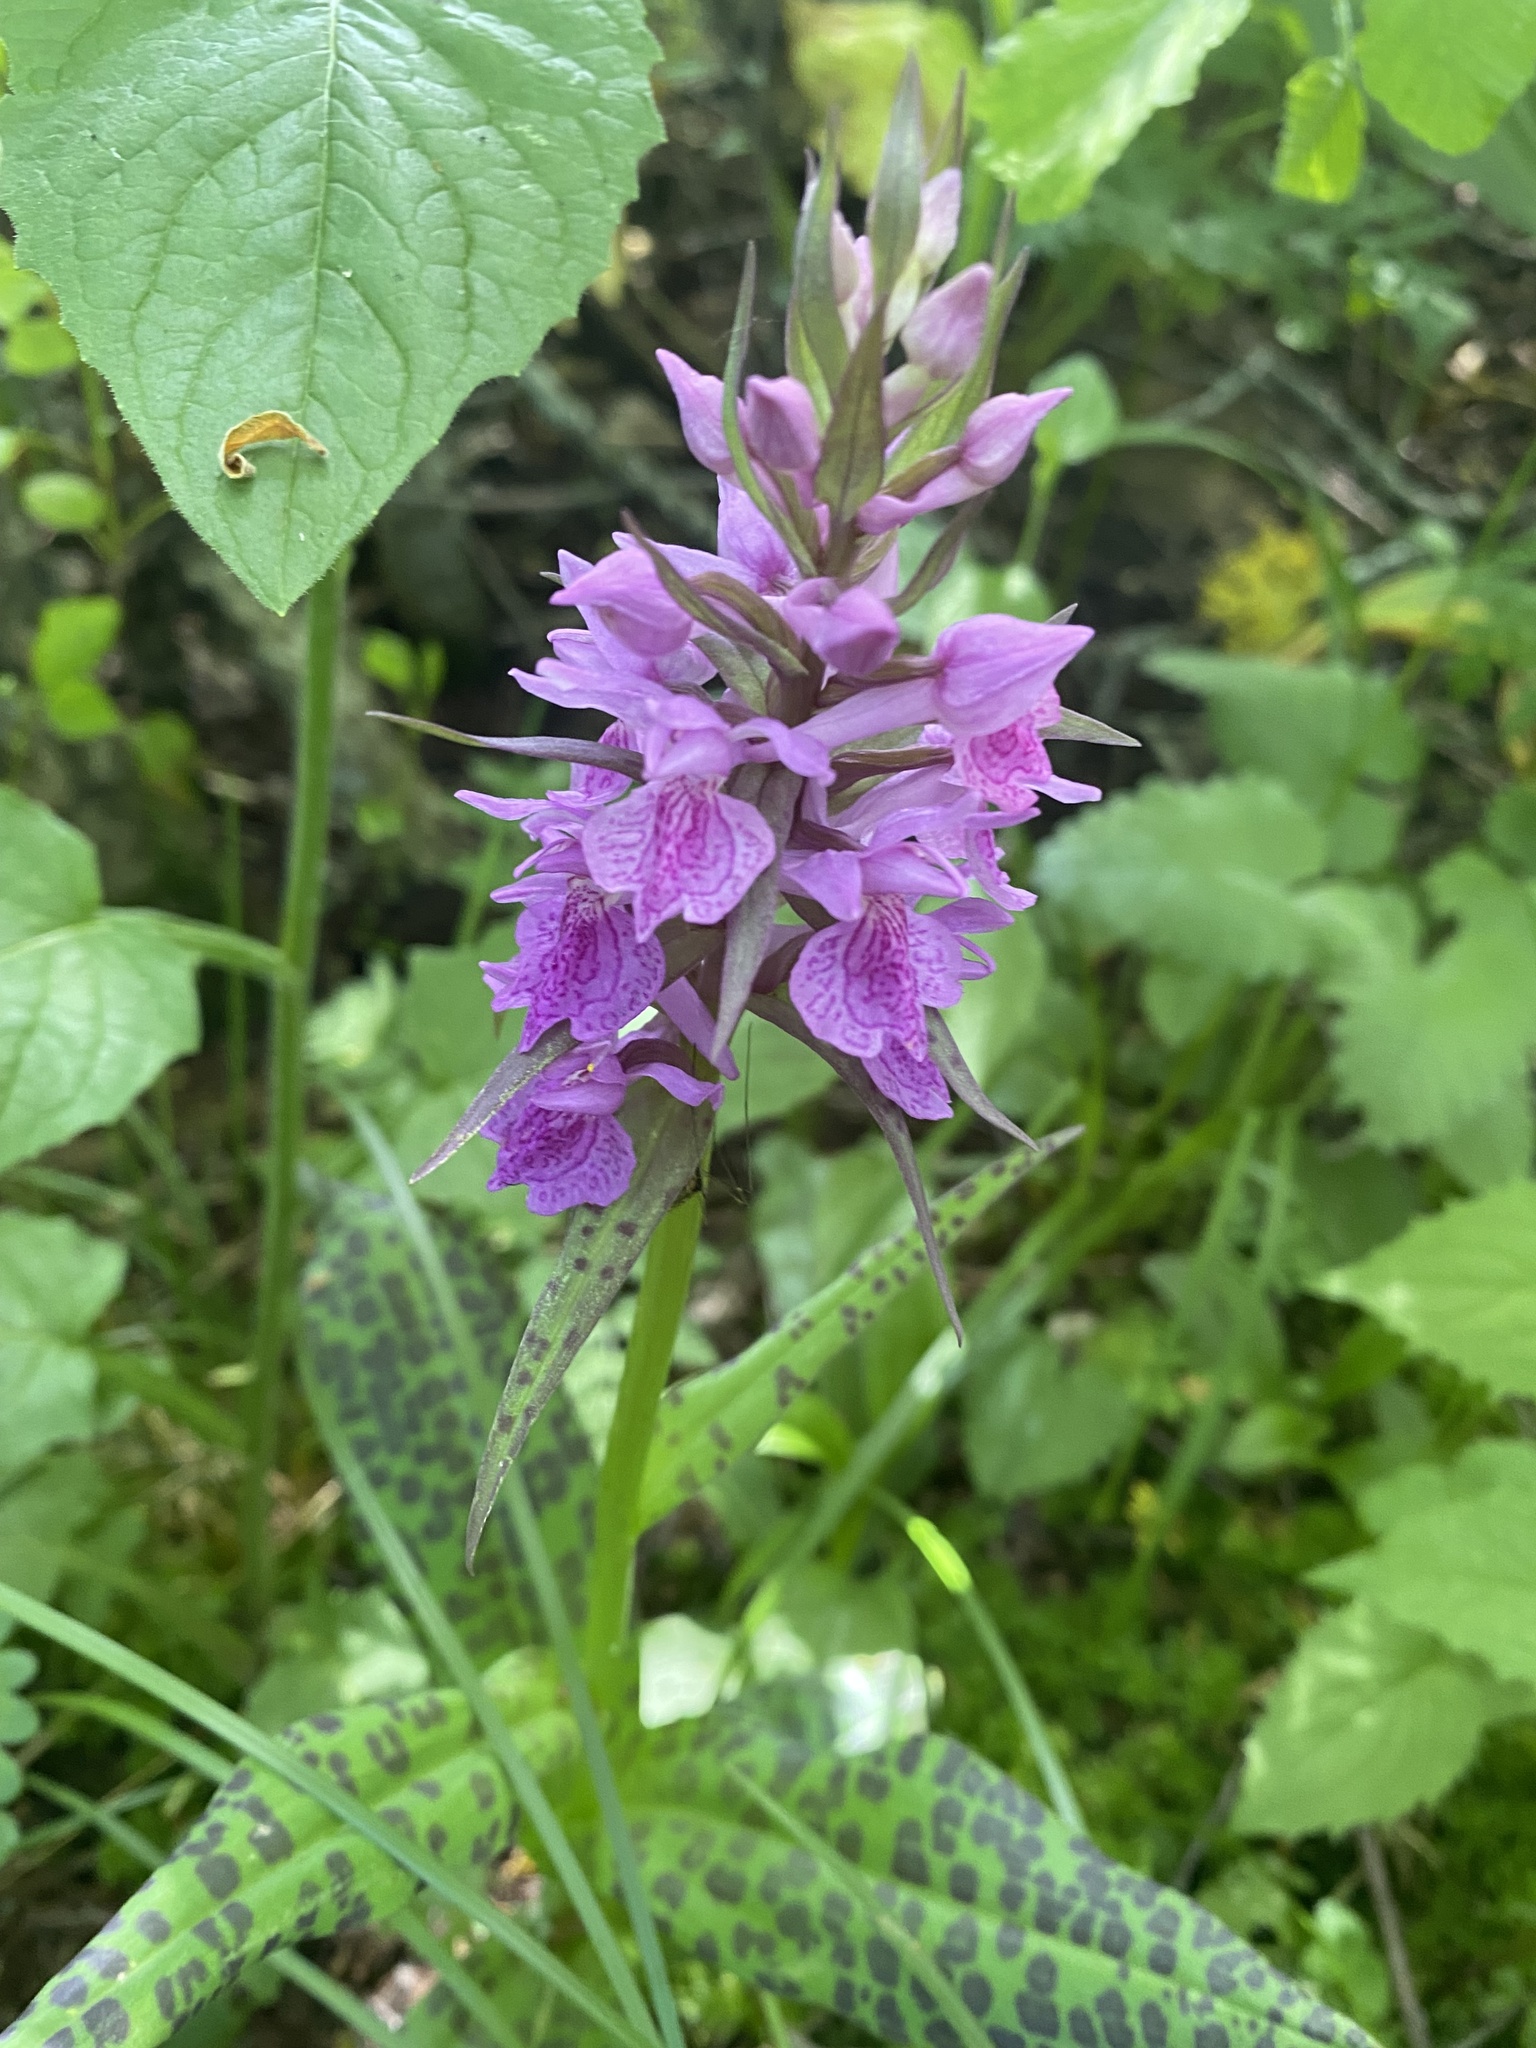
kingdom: Plantae
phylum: Tracheophyta
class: Liliopsida
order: Asparagales
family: Orchidaceae
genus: Dactylorhiza
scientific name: Dactylorhiza urvilleana
